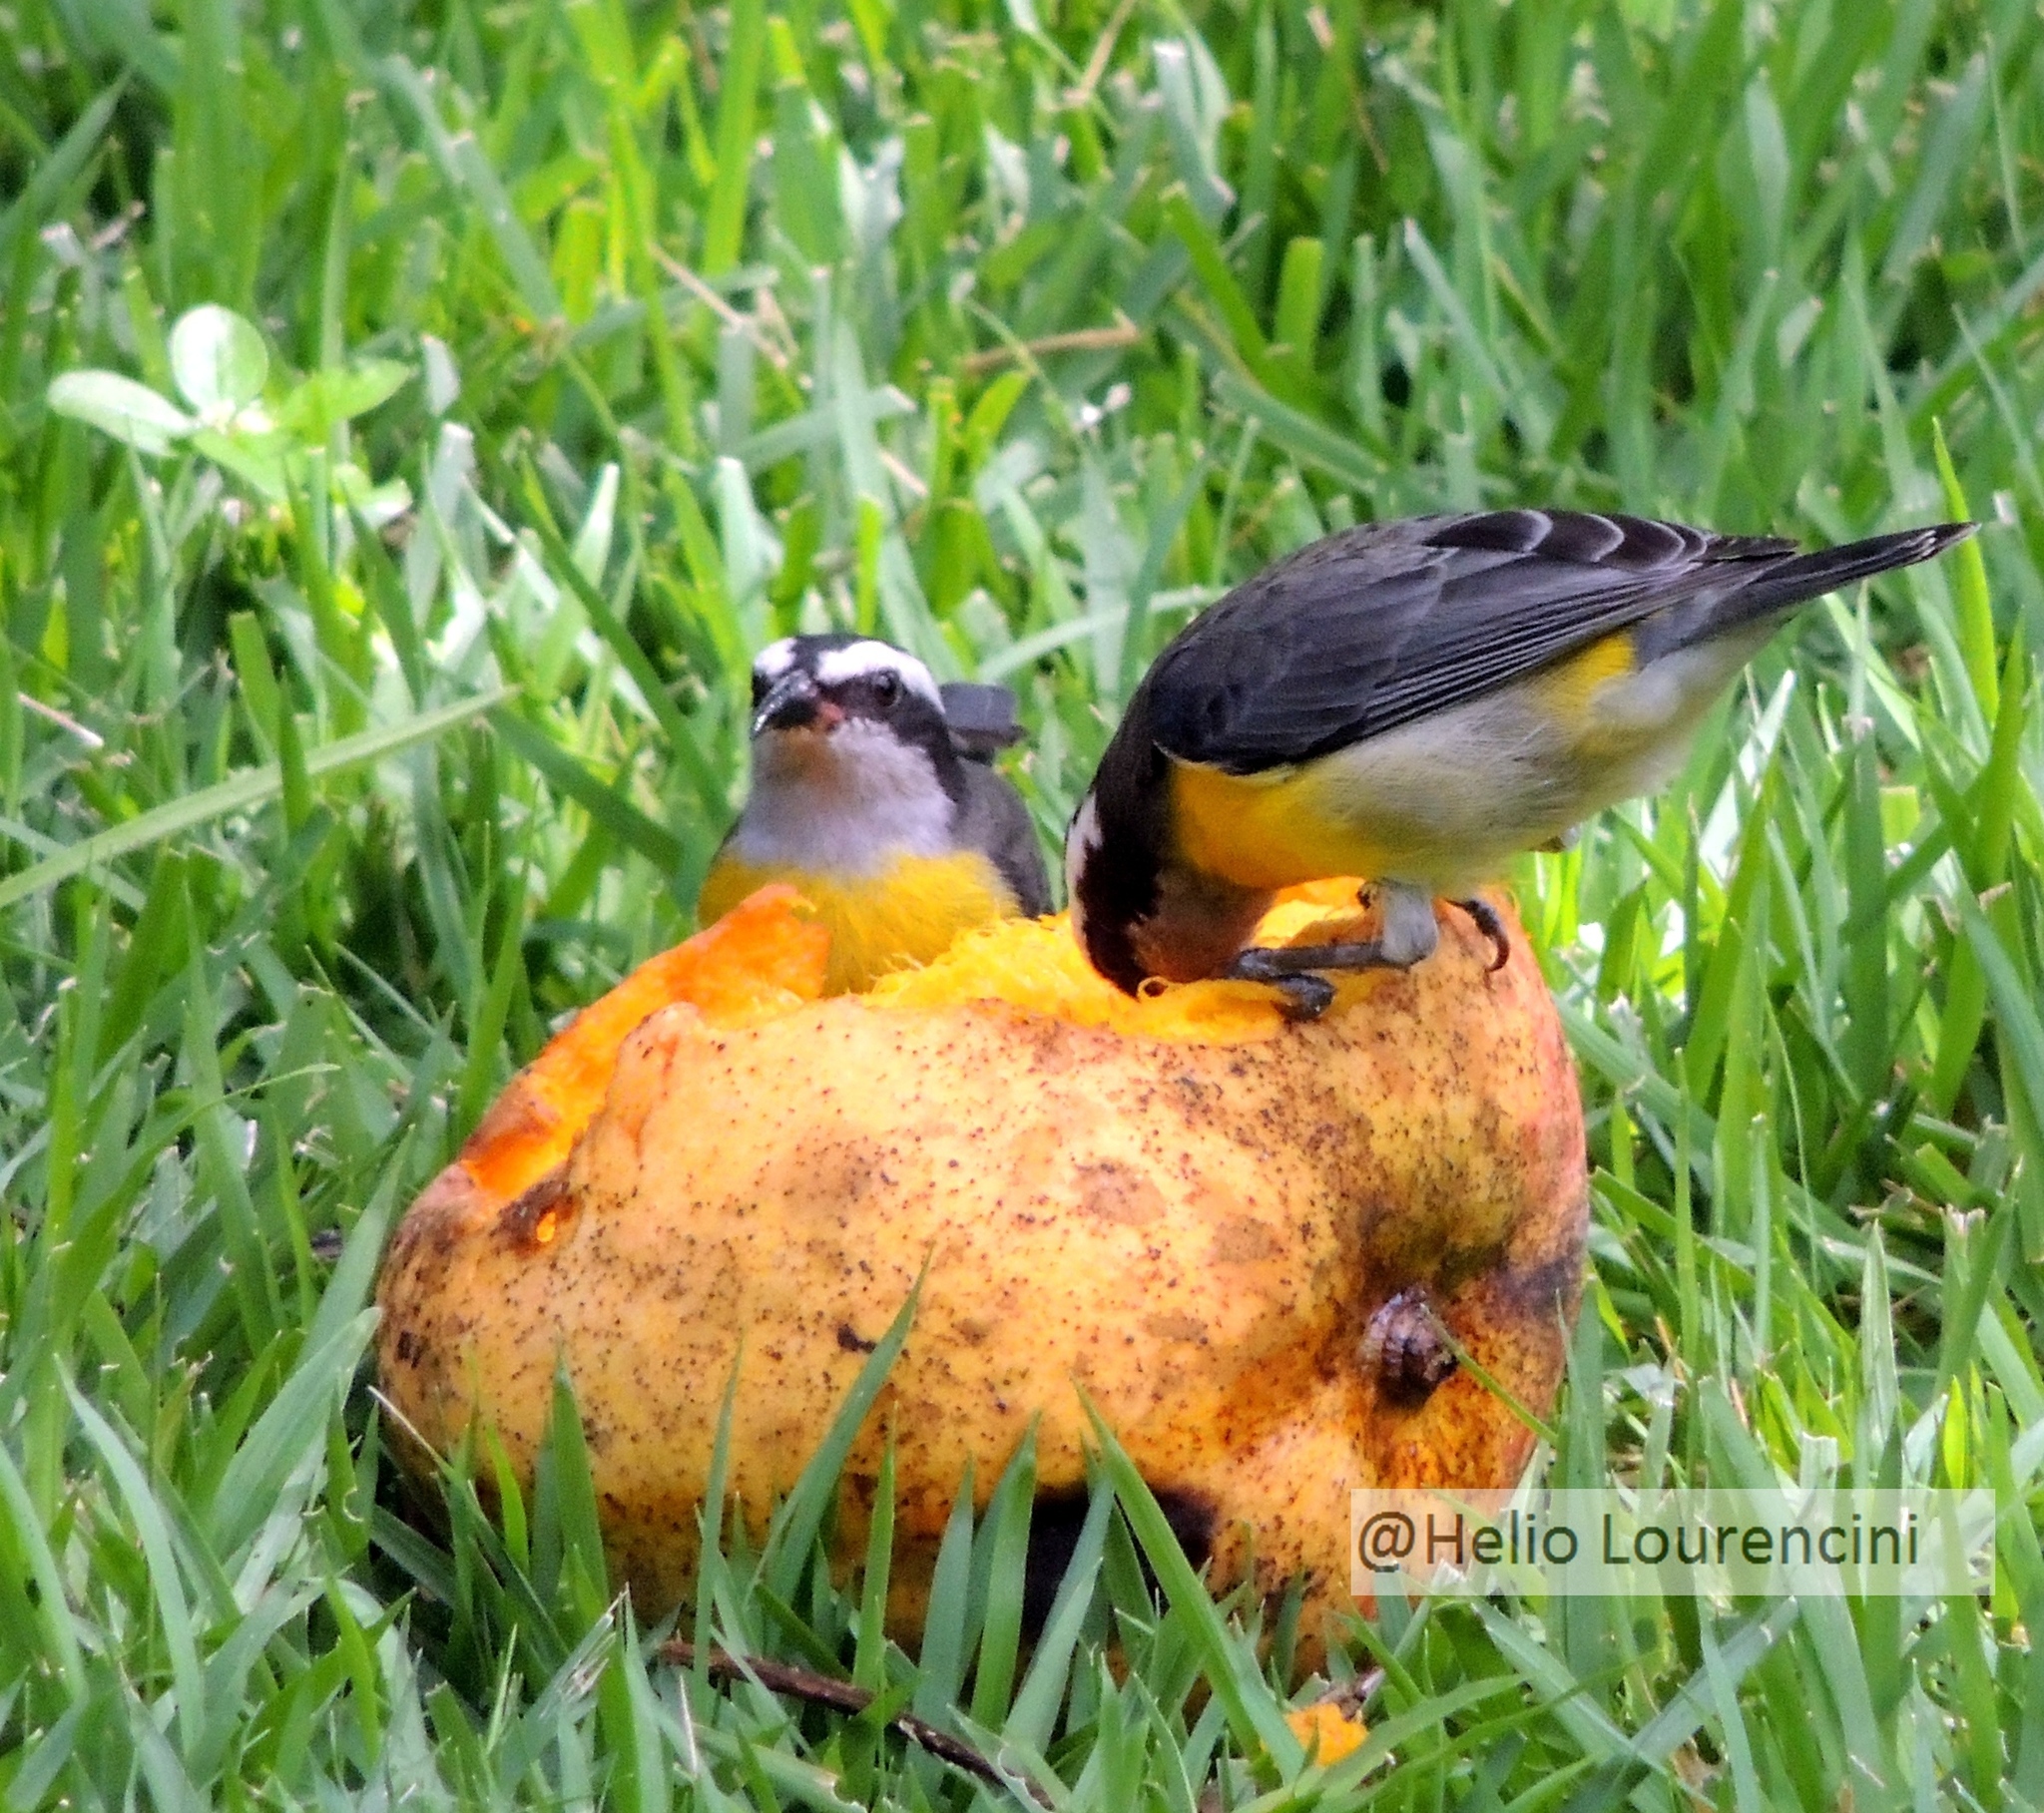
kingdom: Animalia
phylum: Chordata
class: Aves
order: Passeriformes
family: Thraupidae
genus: Coereba
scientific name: Coereba flaveola
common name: Bananaquit
